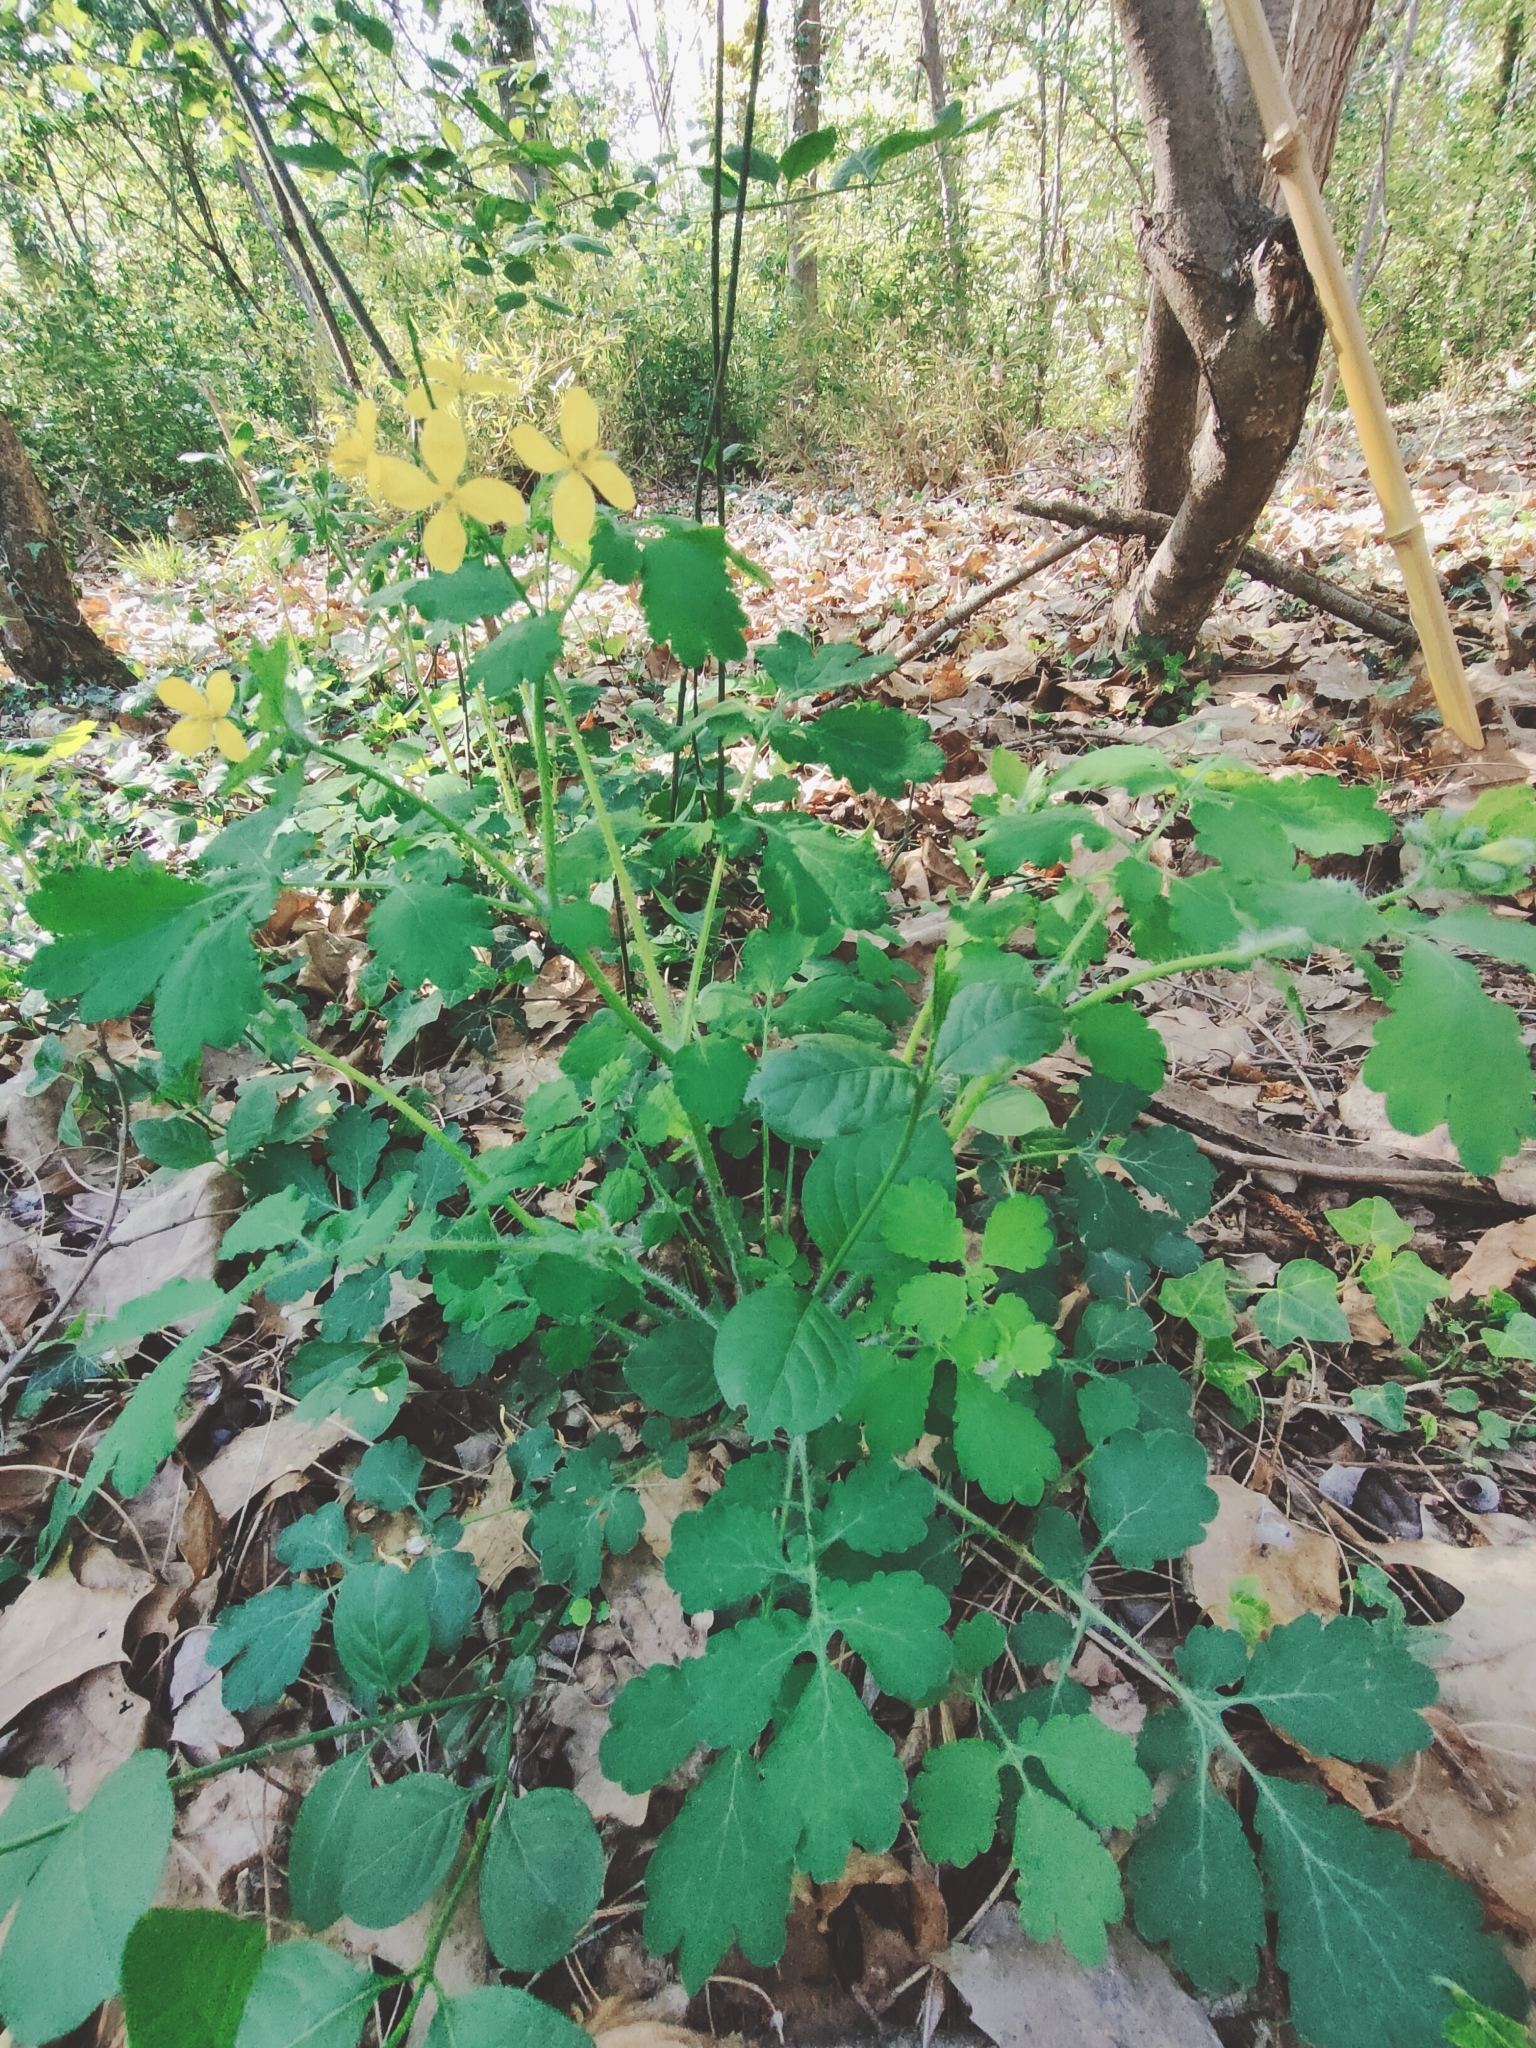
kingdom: Plantae
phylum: Tracheophyta
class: Magnoliopsida
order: Ranunculales
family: Papaveraceae
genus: Chelidonium
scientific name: Chelidonium majus
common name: Greater celandine
